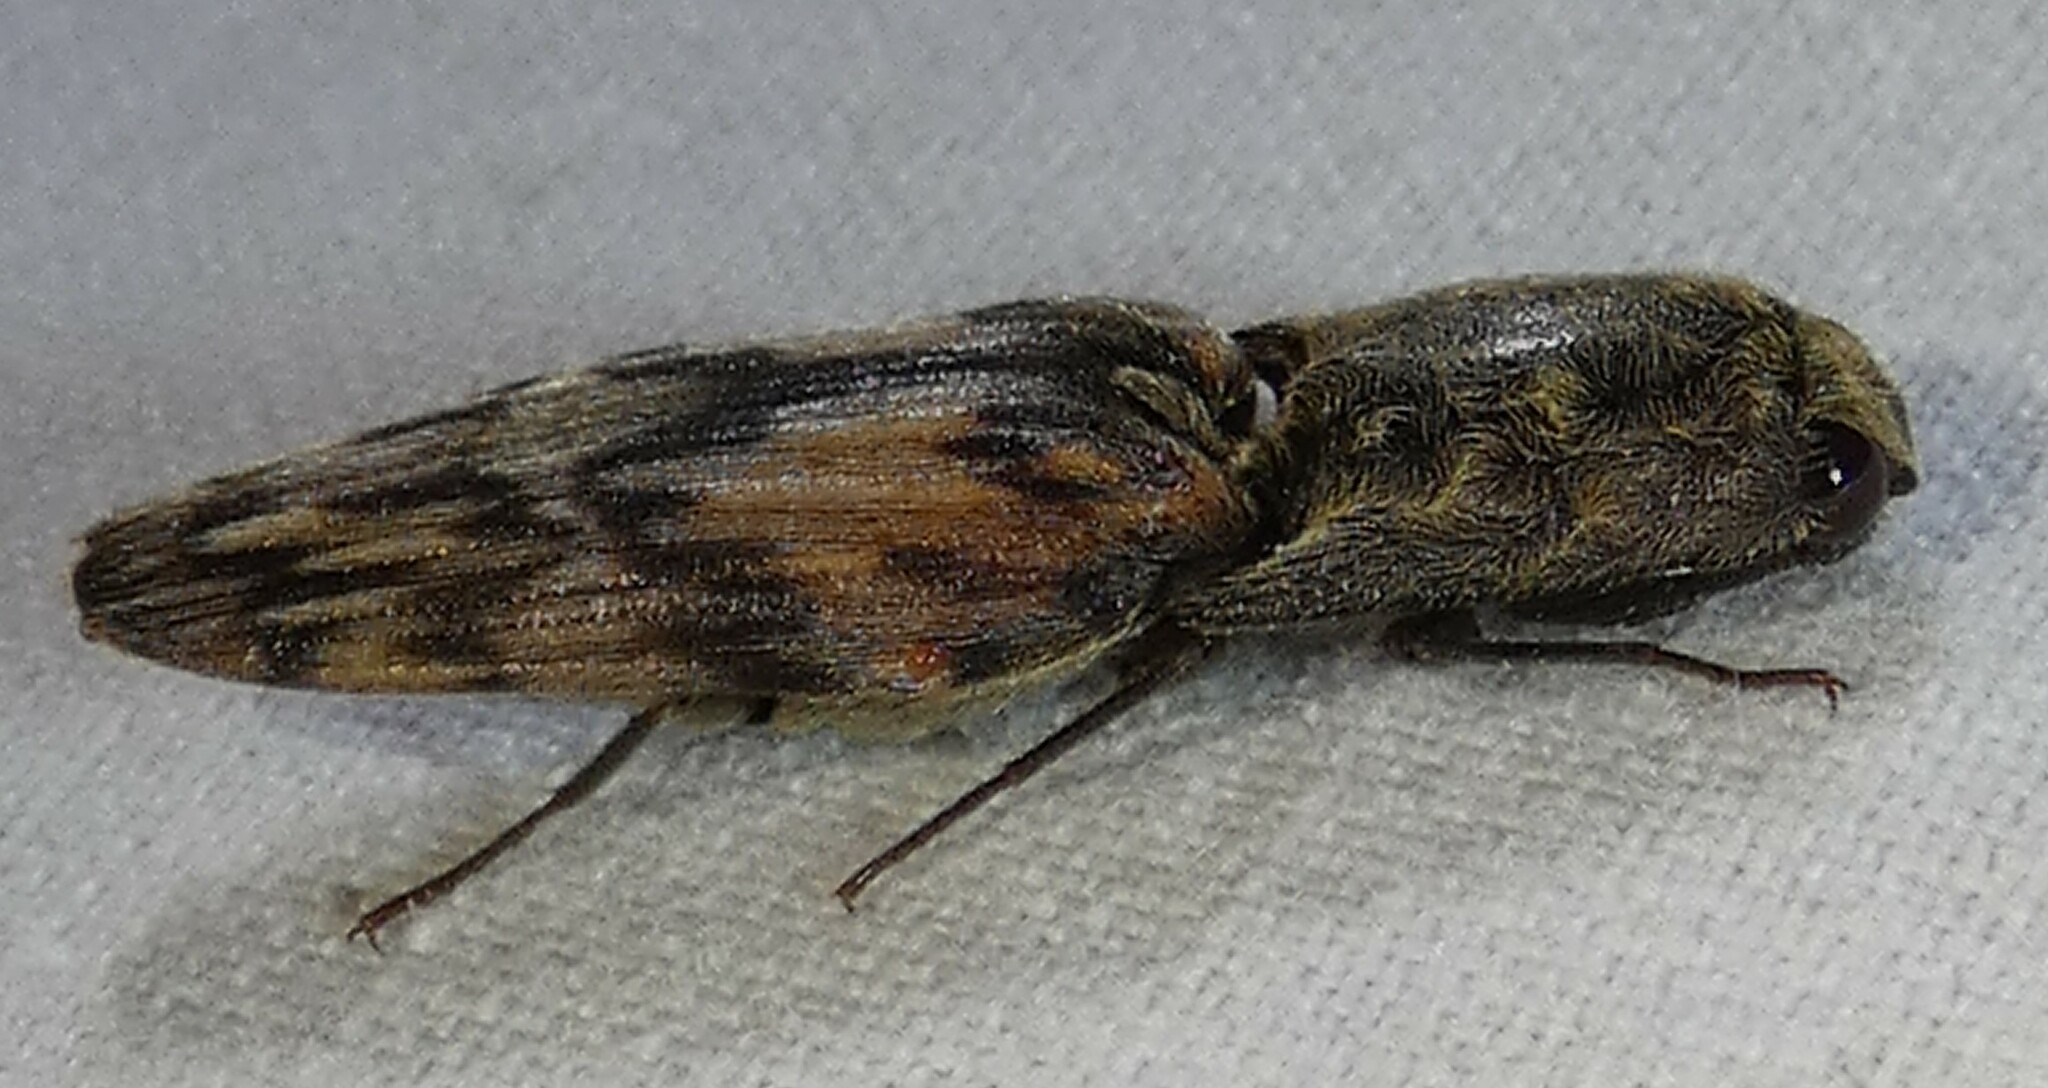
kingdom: Animalia
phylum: Arthropoda
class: Insecta
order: Coleoptera
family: Elateridae
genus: Pherhimius
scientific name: Pherhimius fascicularis
